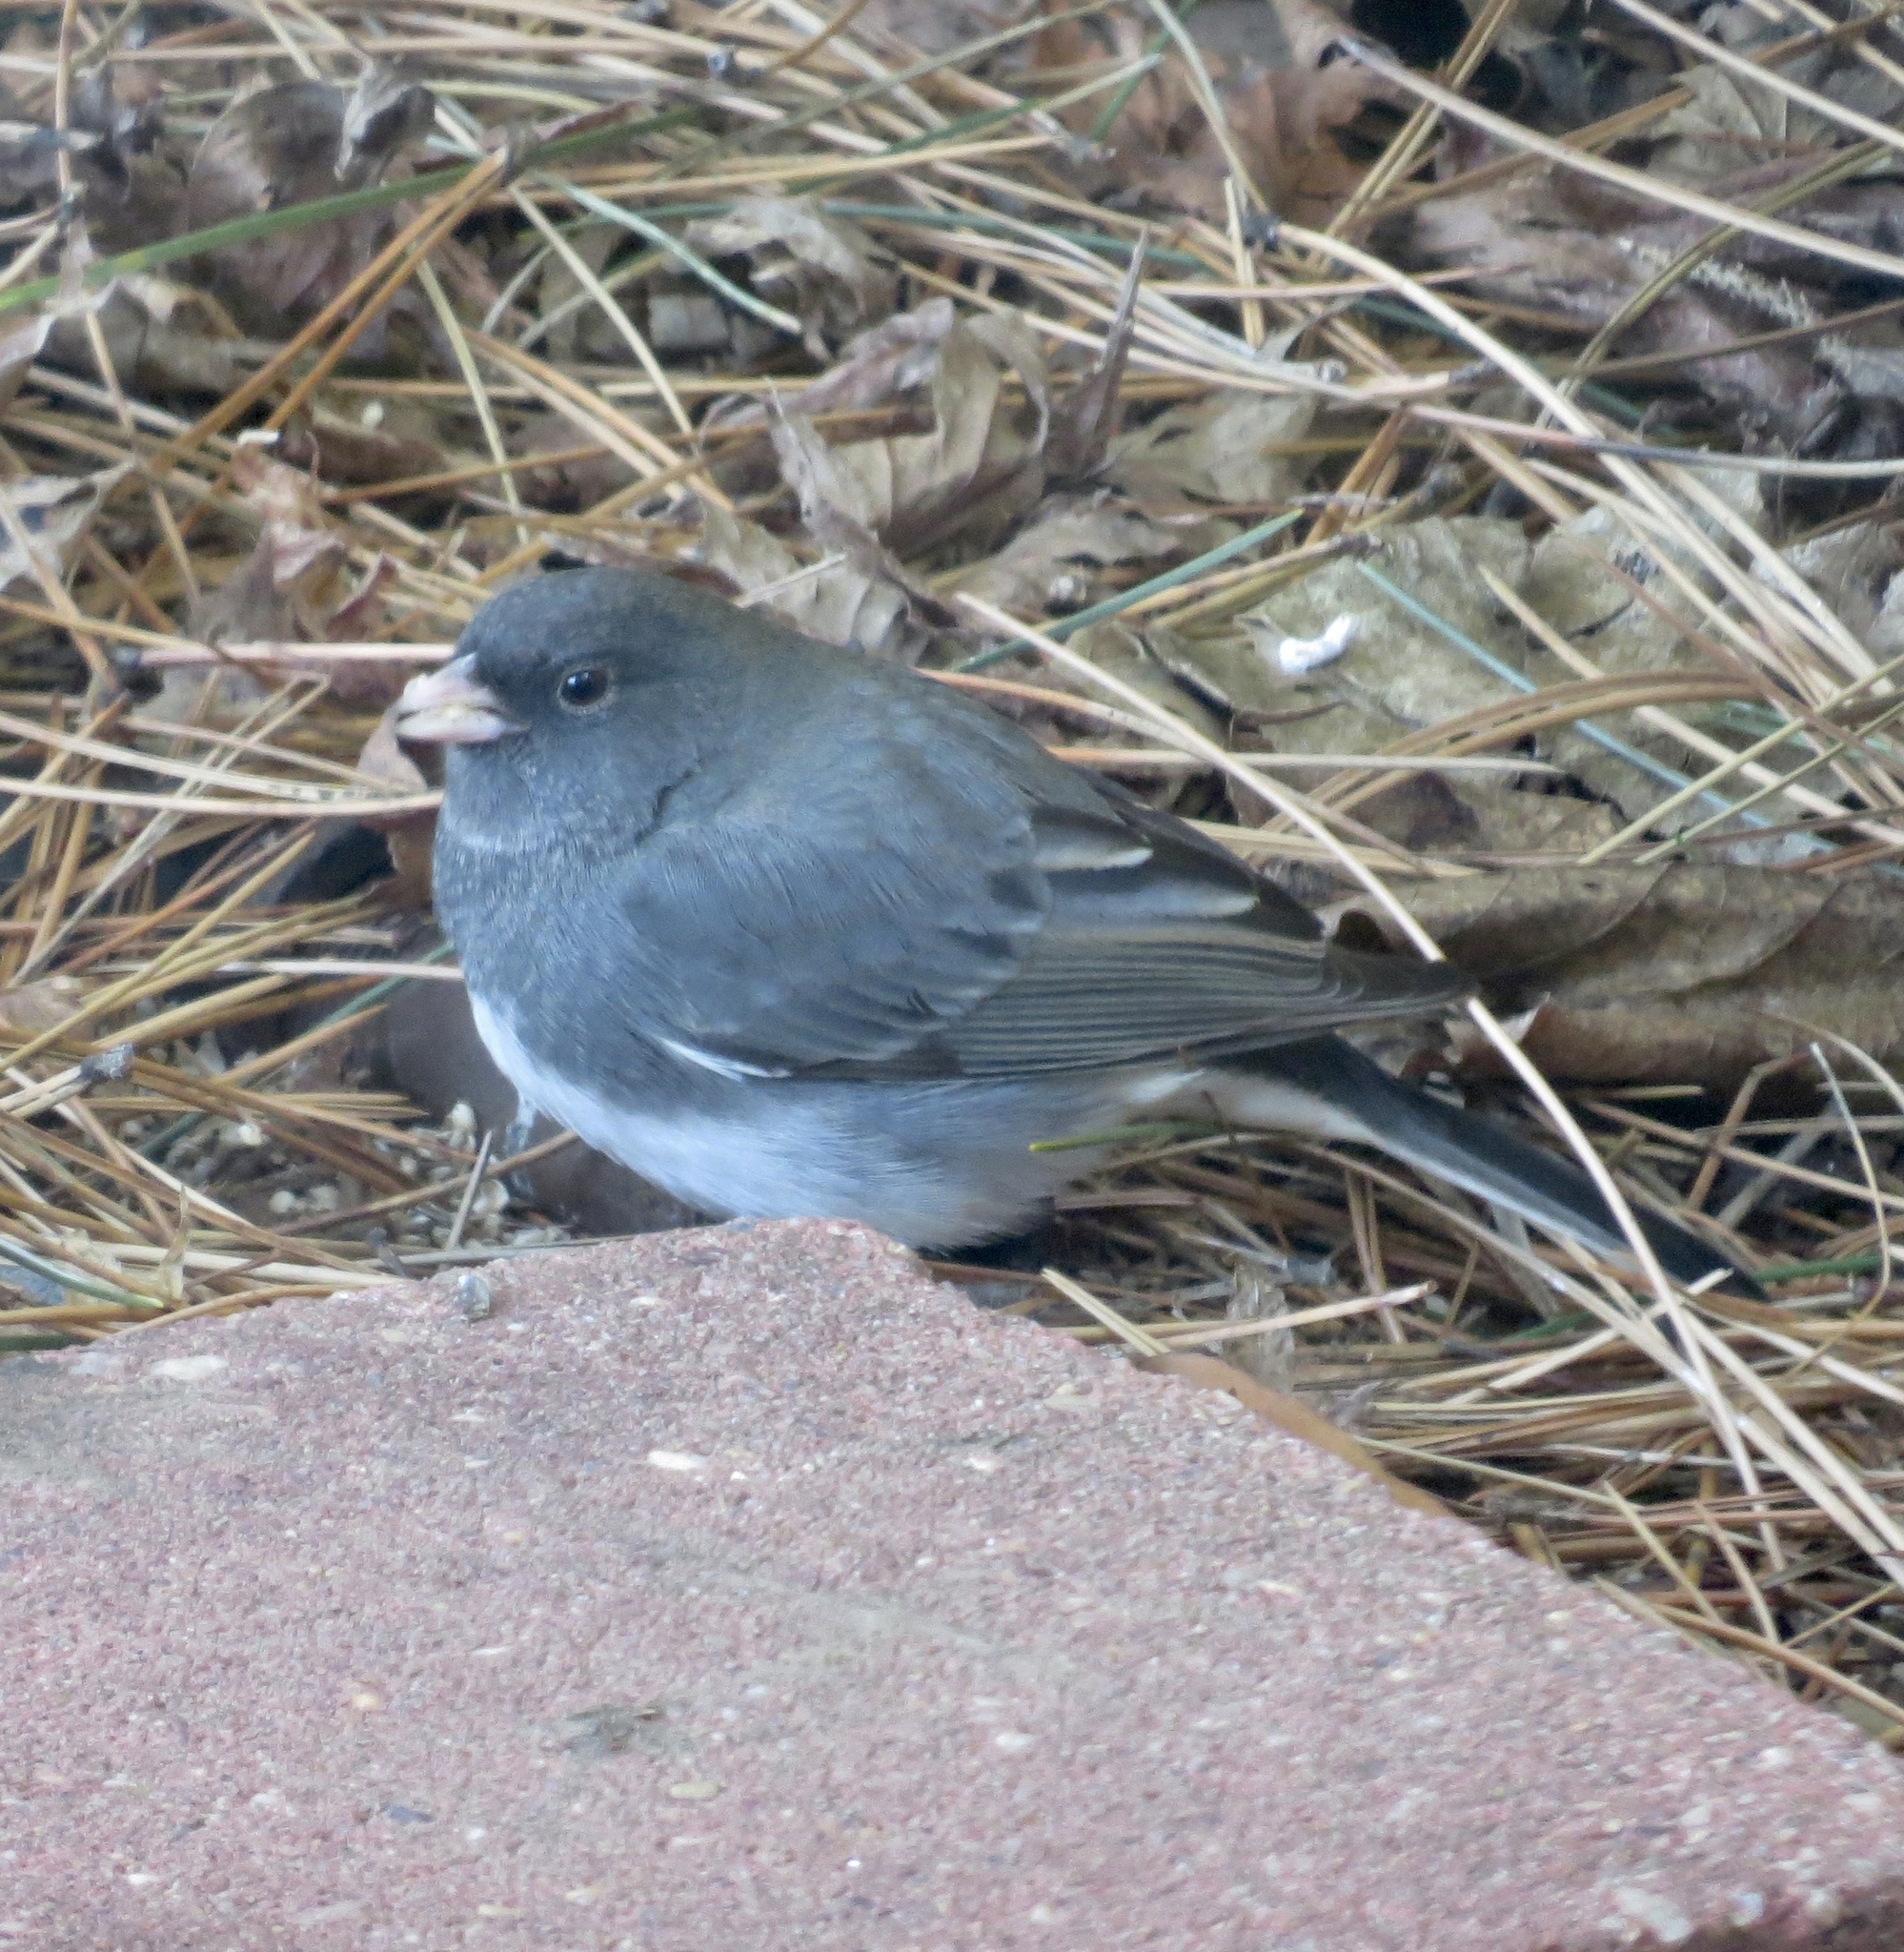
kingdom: Animalia
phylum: Chordata
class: Aves
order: Passeriformes
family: Passerellidae
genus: Junco
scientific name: Junco hyemalis
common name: Dark-eyed junco
